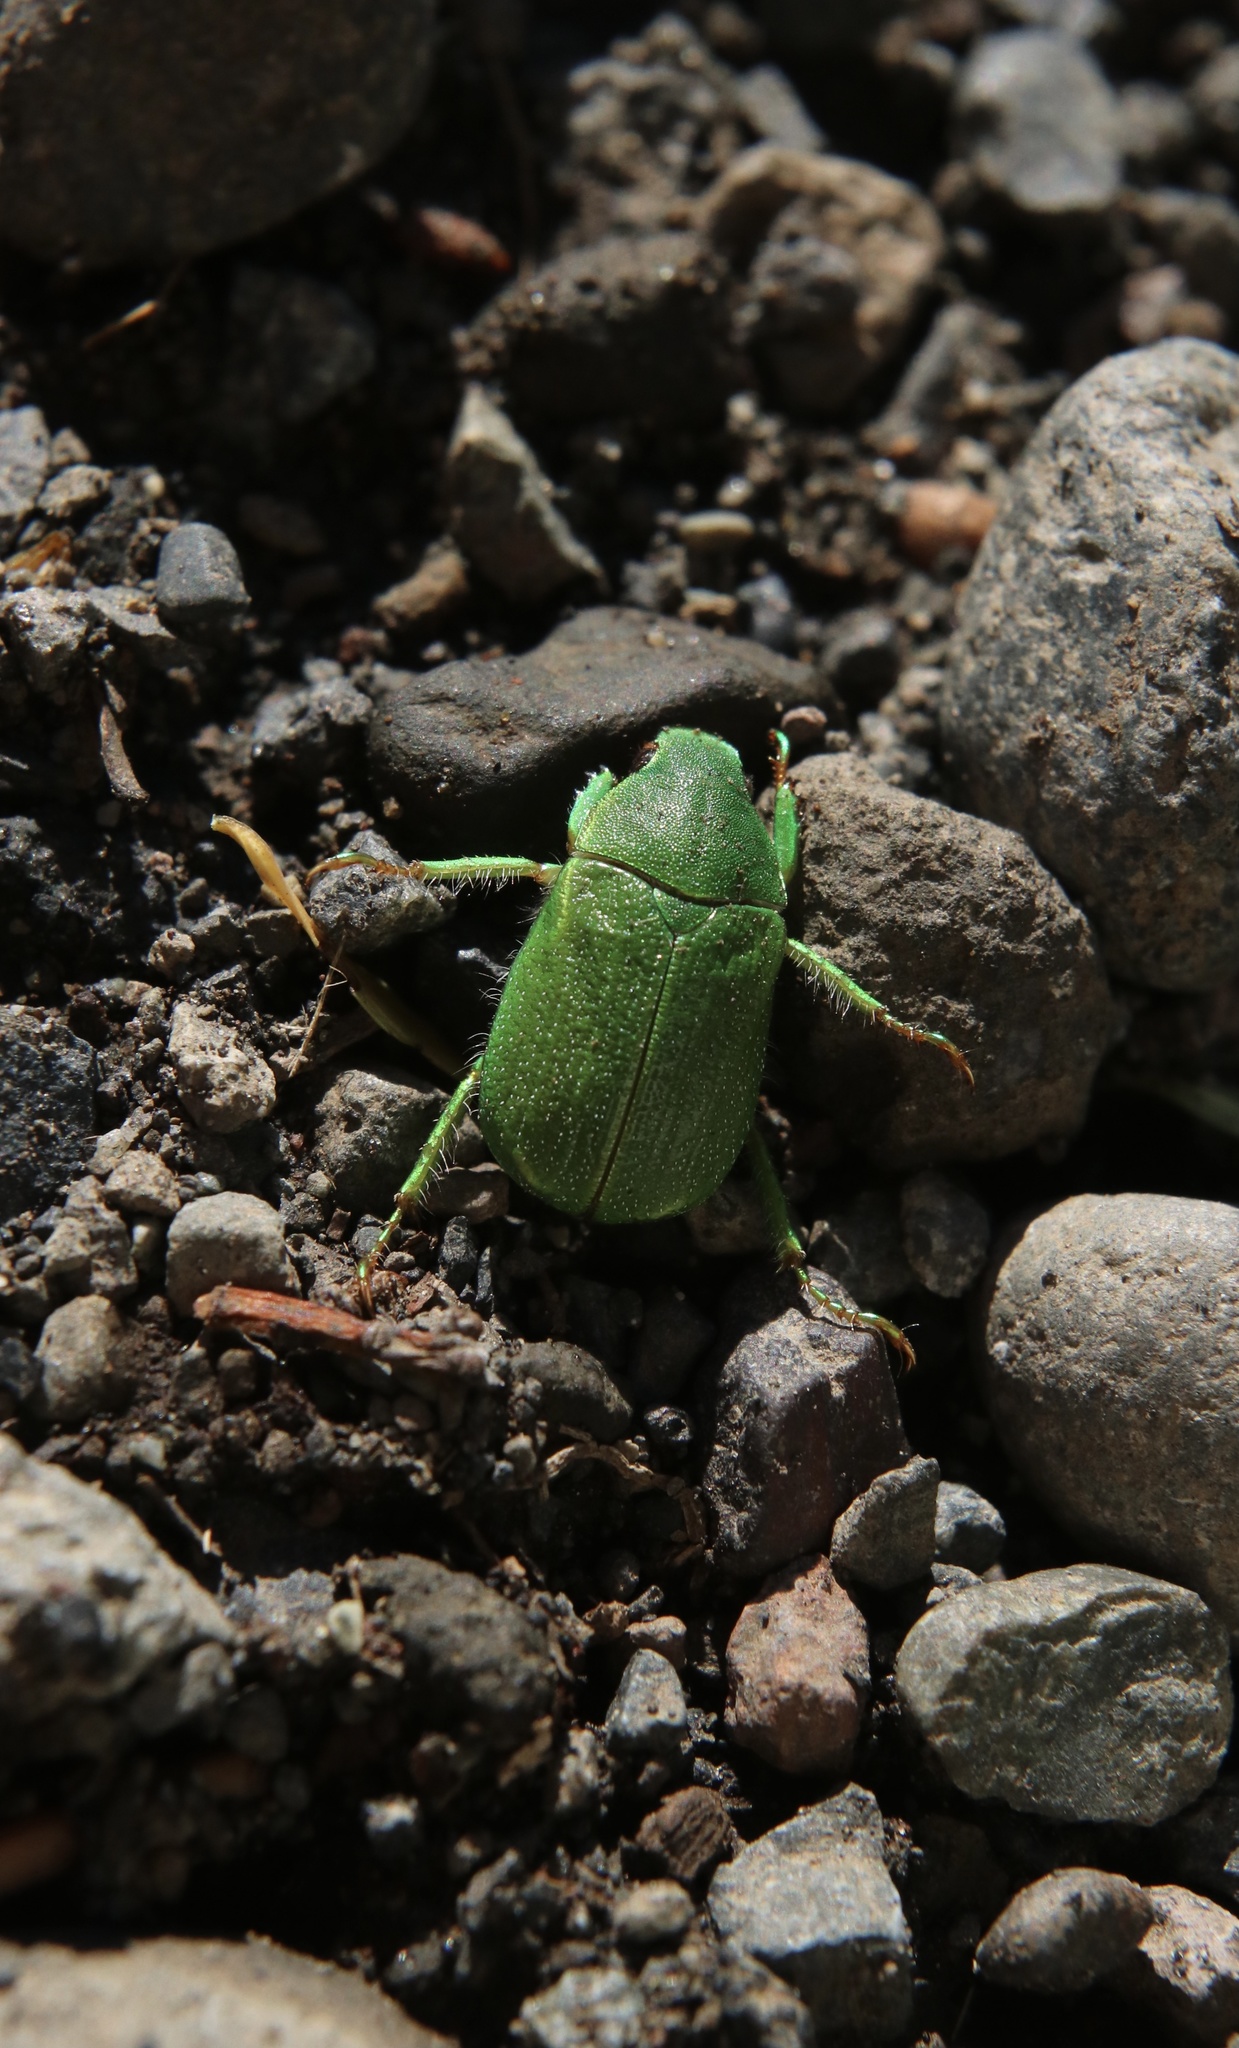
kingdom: Animalia
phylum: Arthropoda
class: Insecta
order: Coleoptera
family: Scarabaeidae
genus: Hylamorpha
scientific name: Hylamorpha elegans
